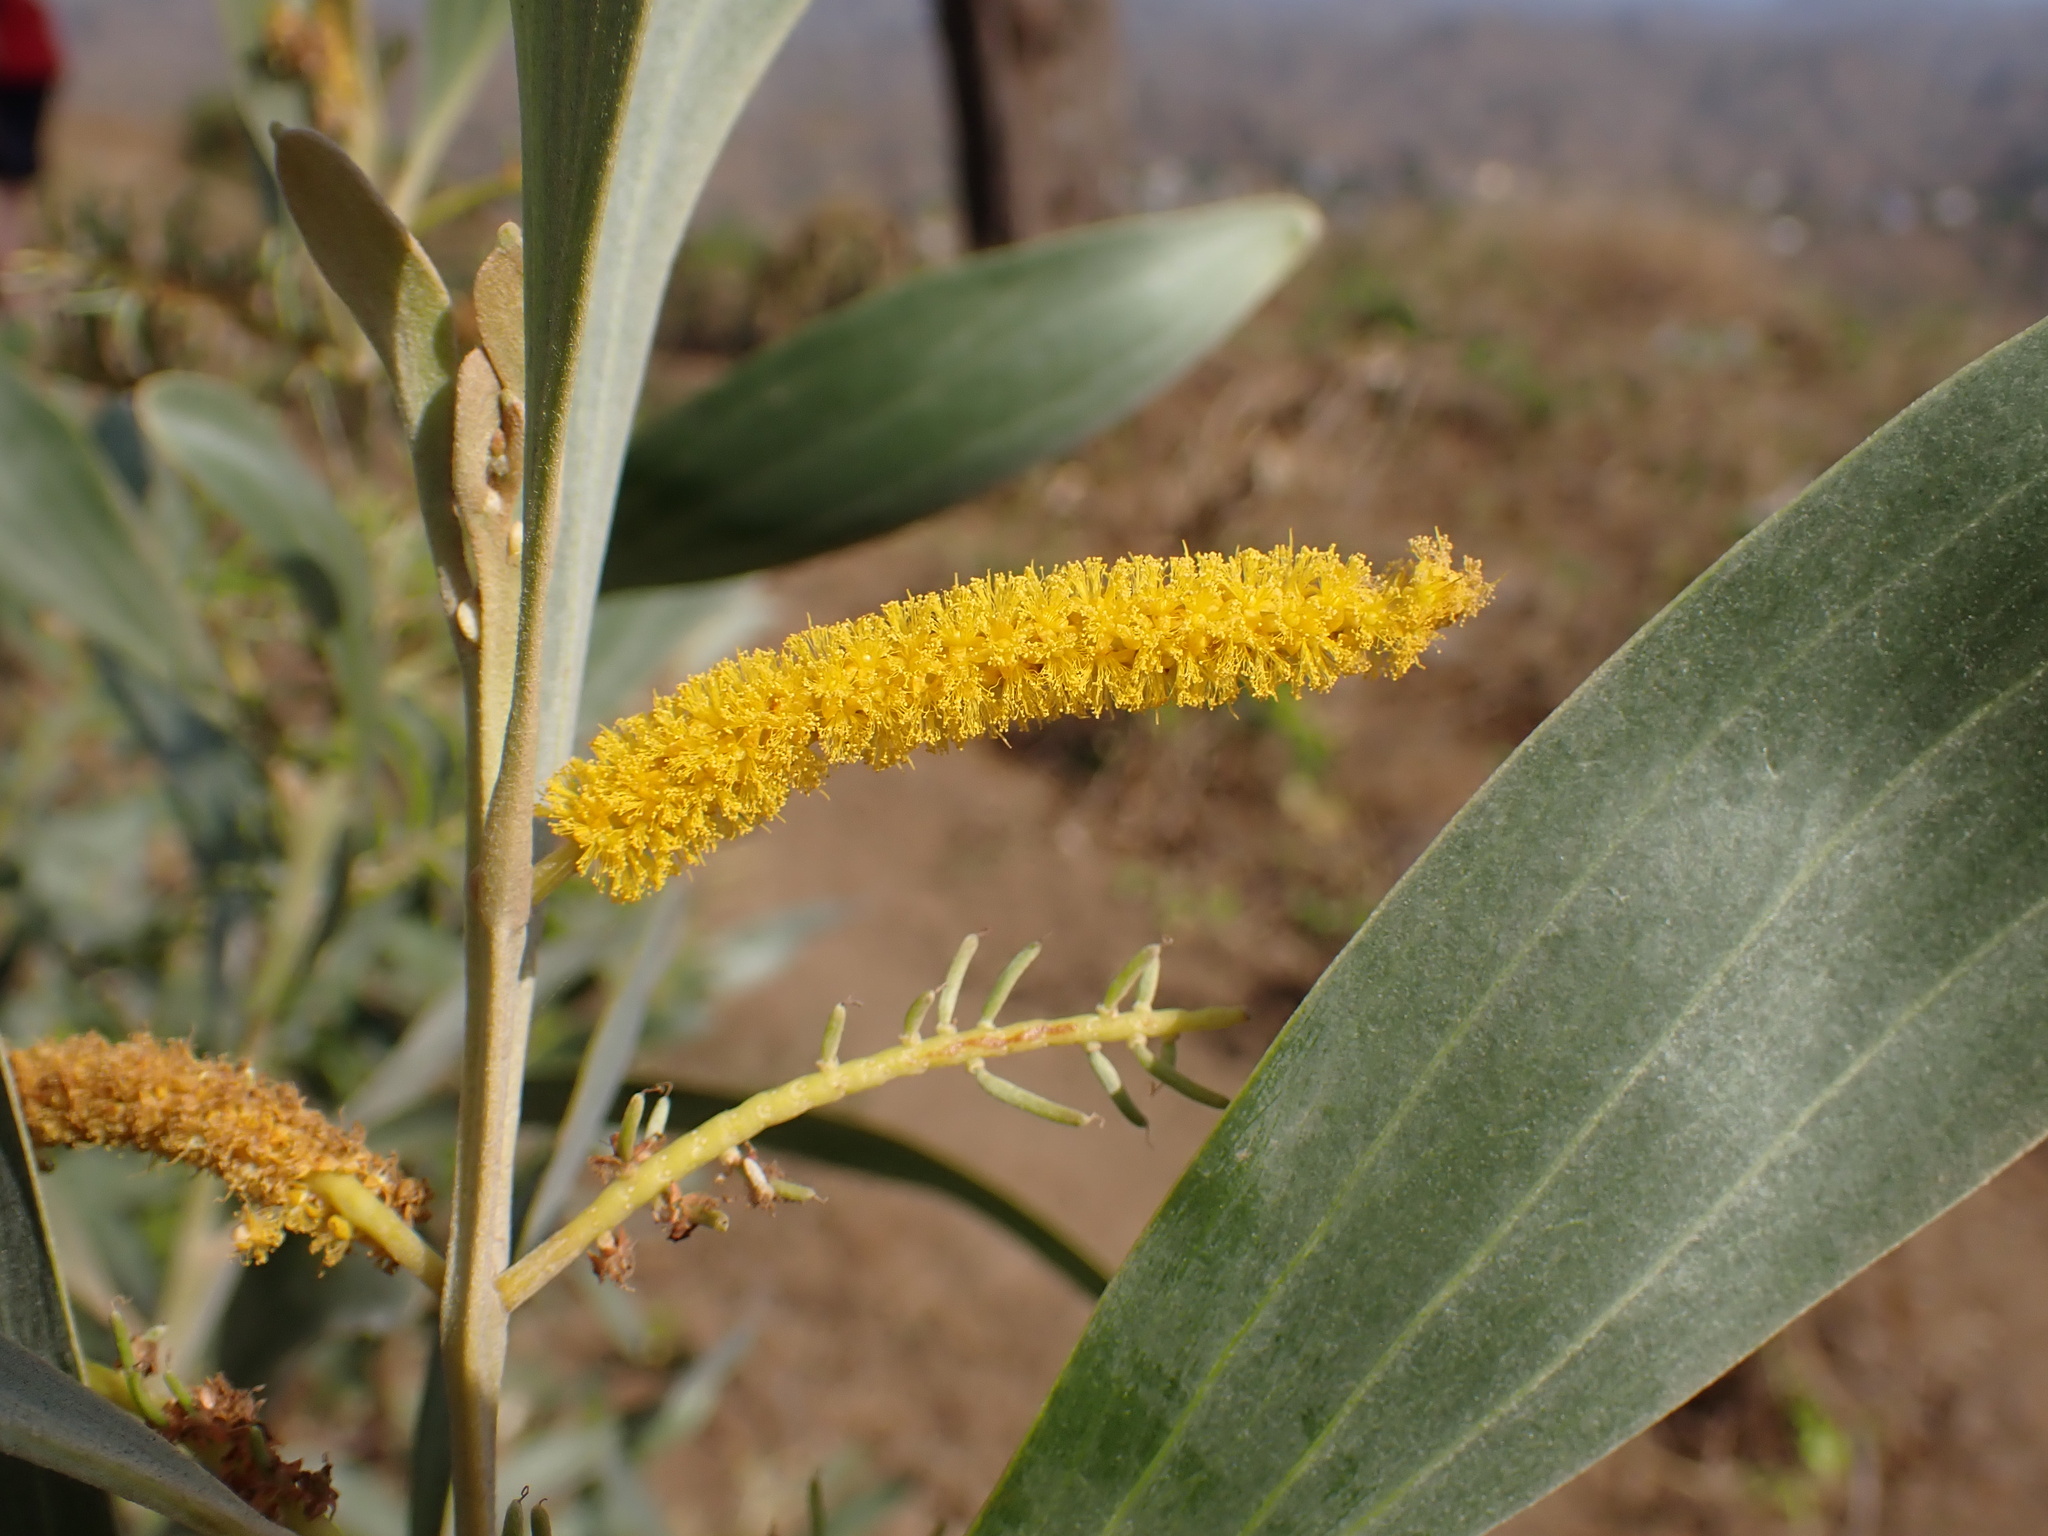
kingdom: Plantae
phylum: Tracheophyta
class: Magnoliopsida
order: Fabales
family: Fabaceae
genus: Acacia
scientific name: Acacia holosericea
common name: Candelabra wattle
